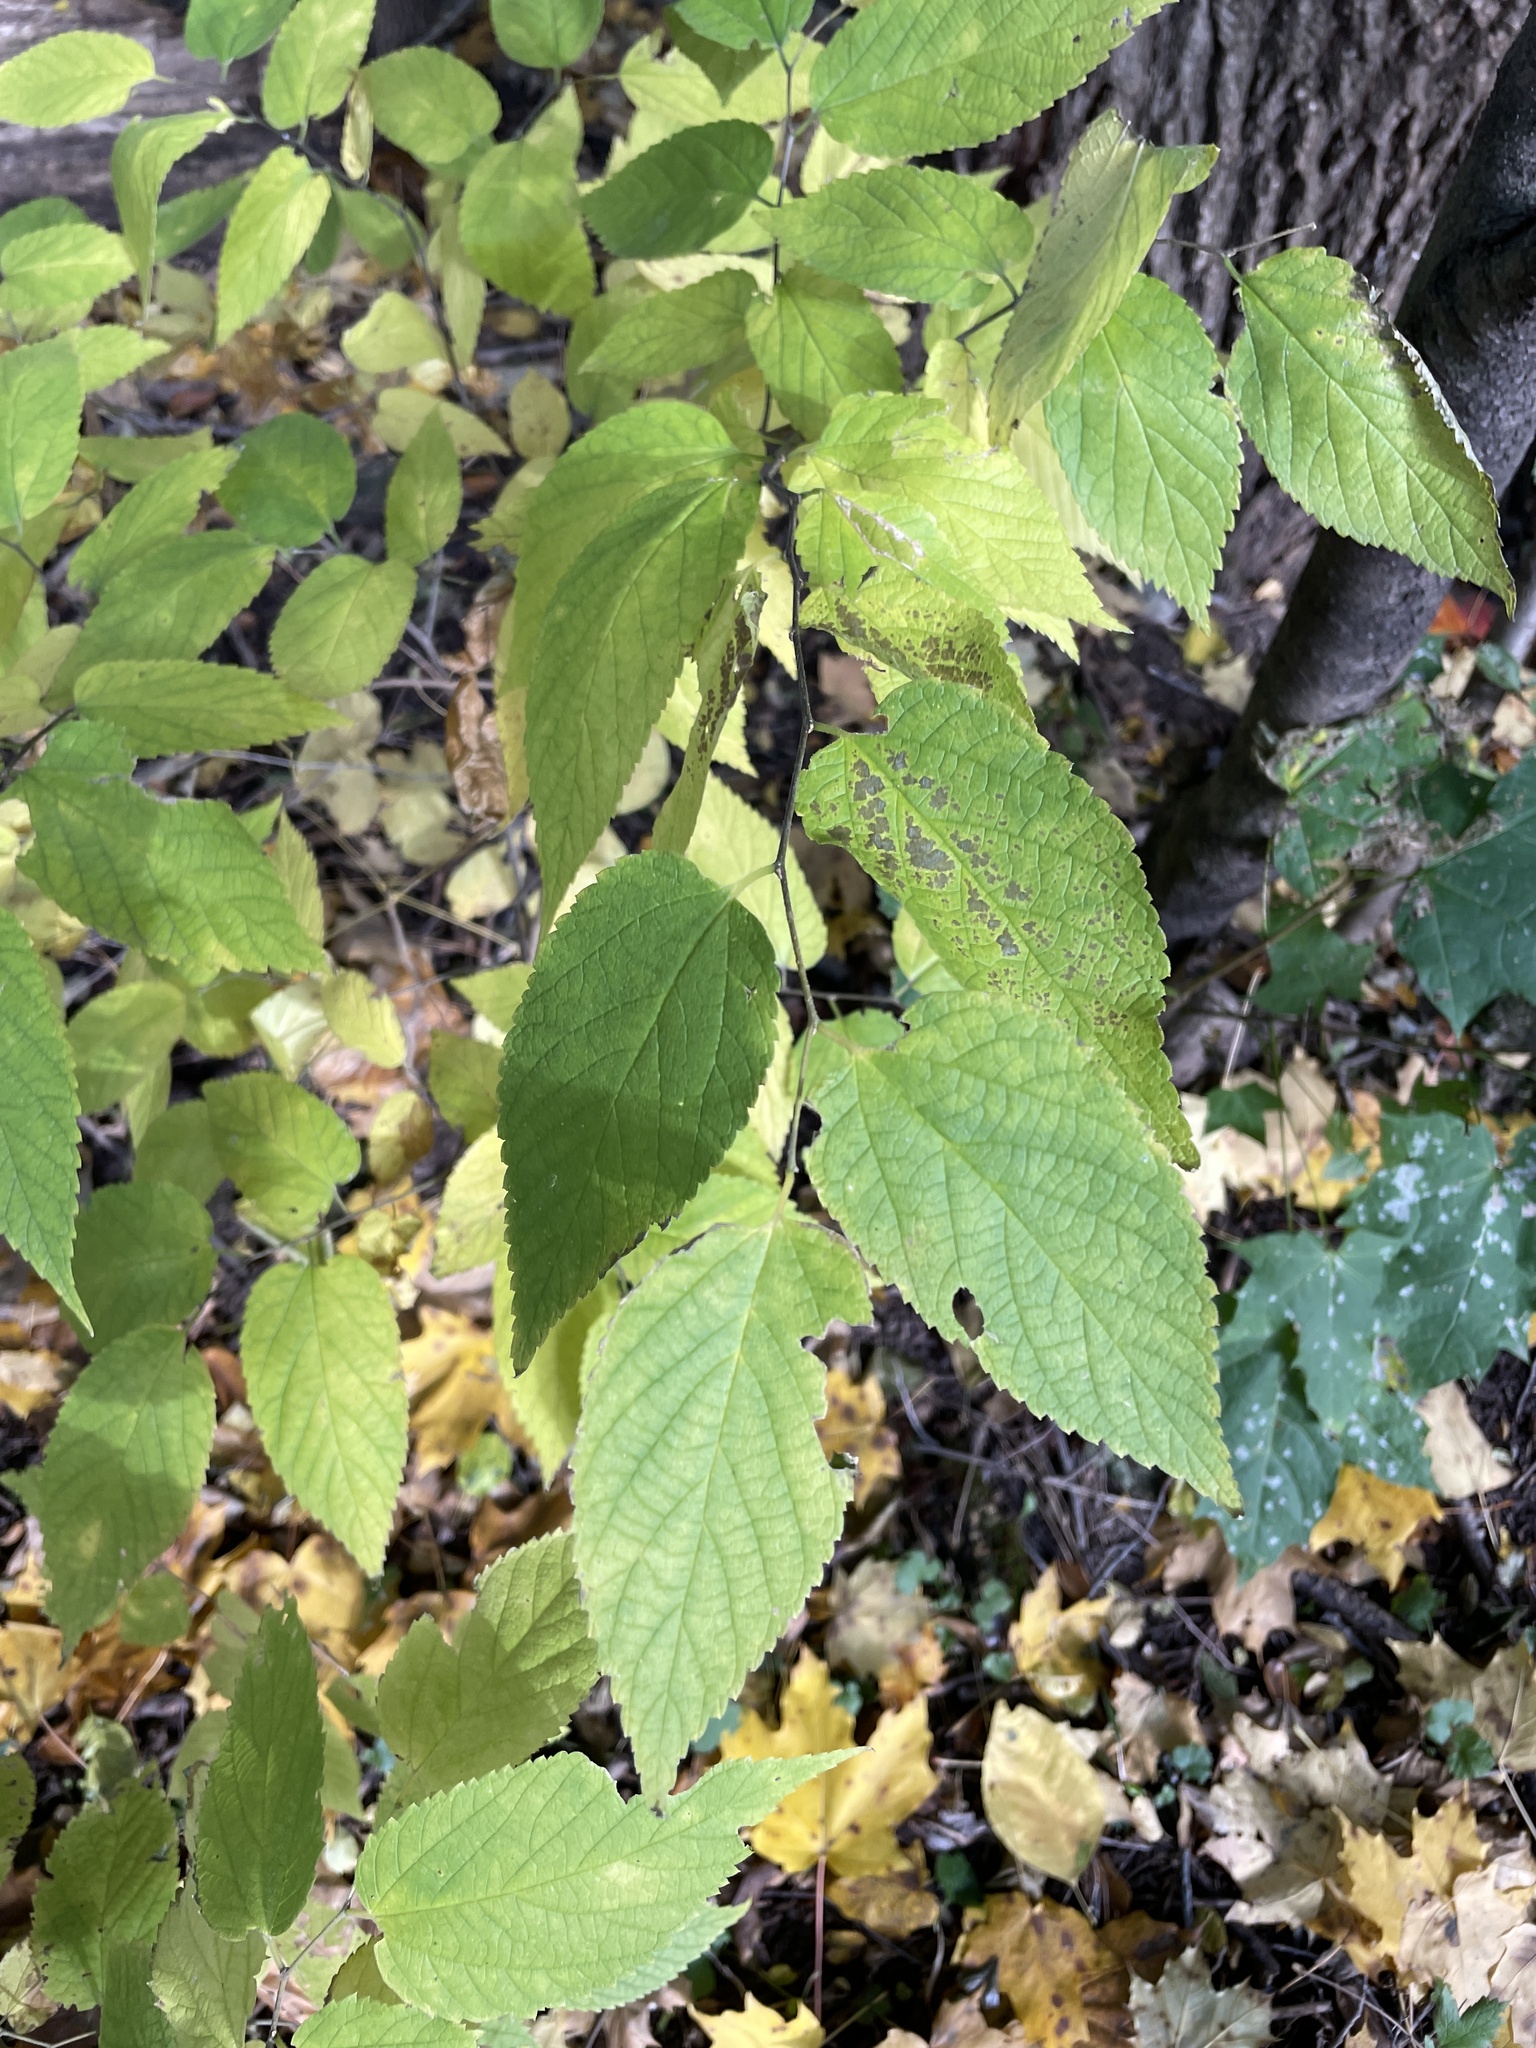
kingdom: Plantae
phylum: Tracheophyta
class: Magnoliopsida
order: Rosales
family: Cannabaceae
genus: Celtis
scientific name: Celtis occidentalis
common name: Common hackberry
